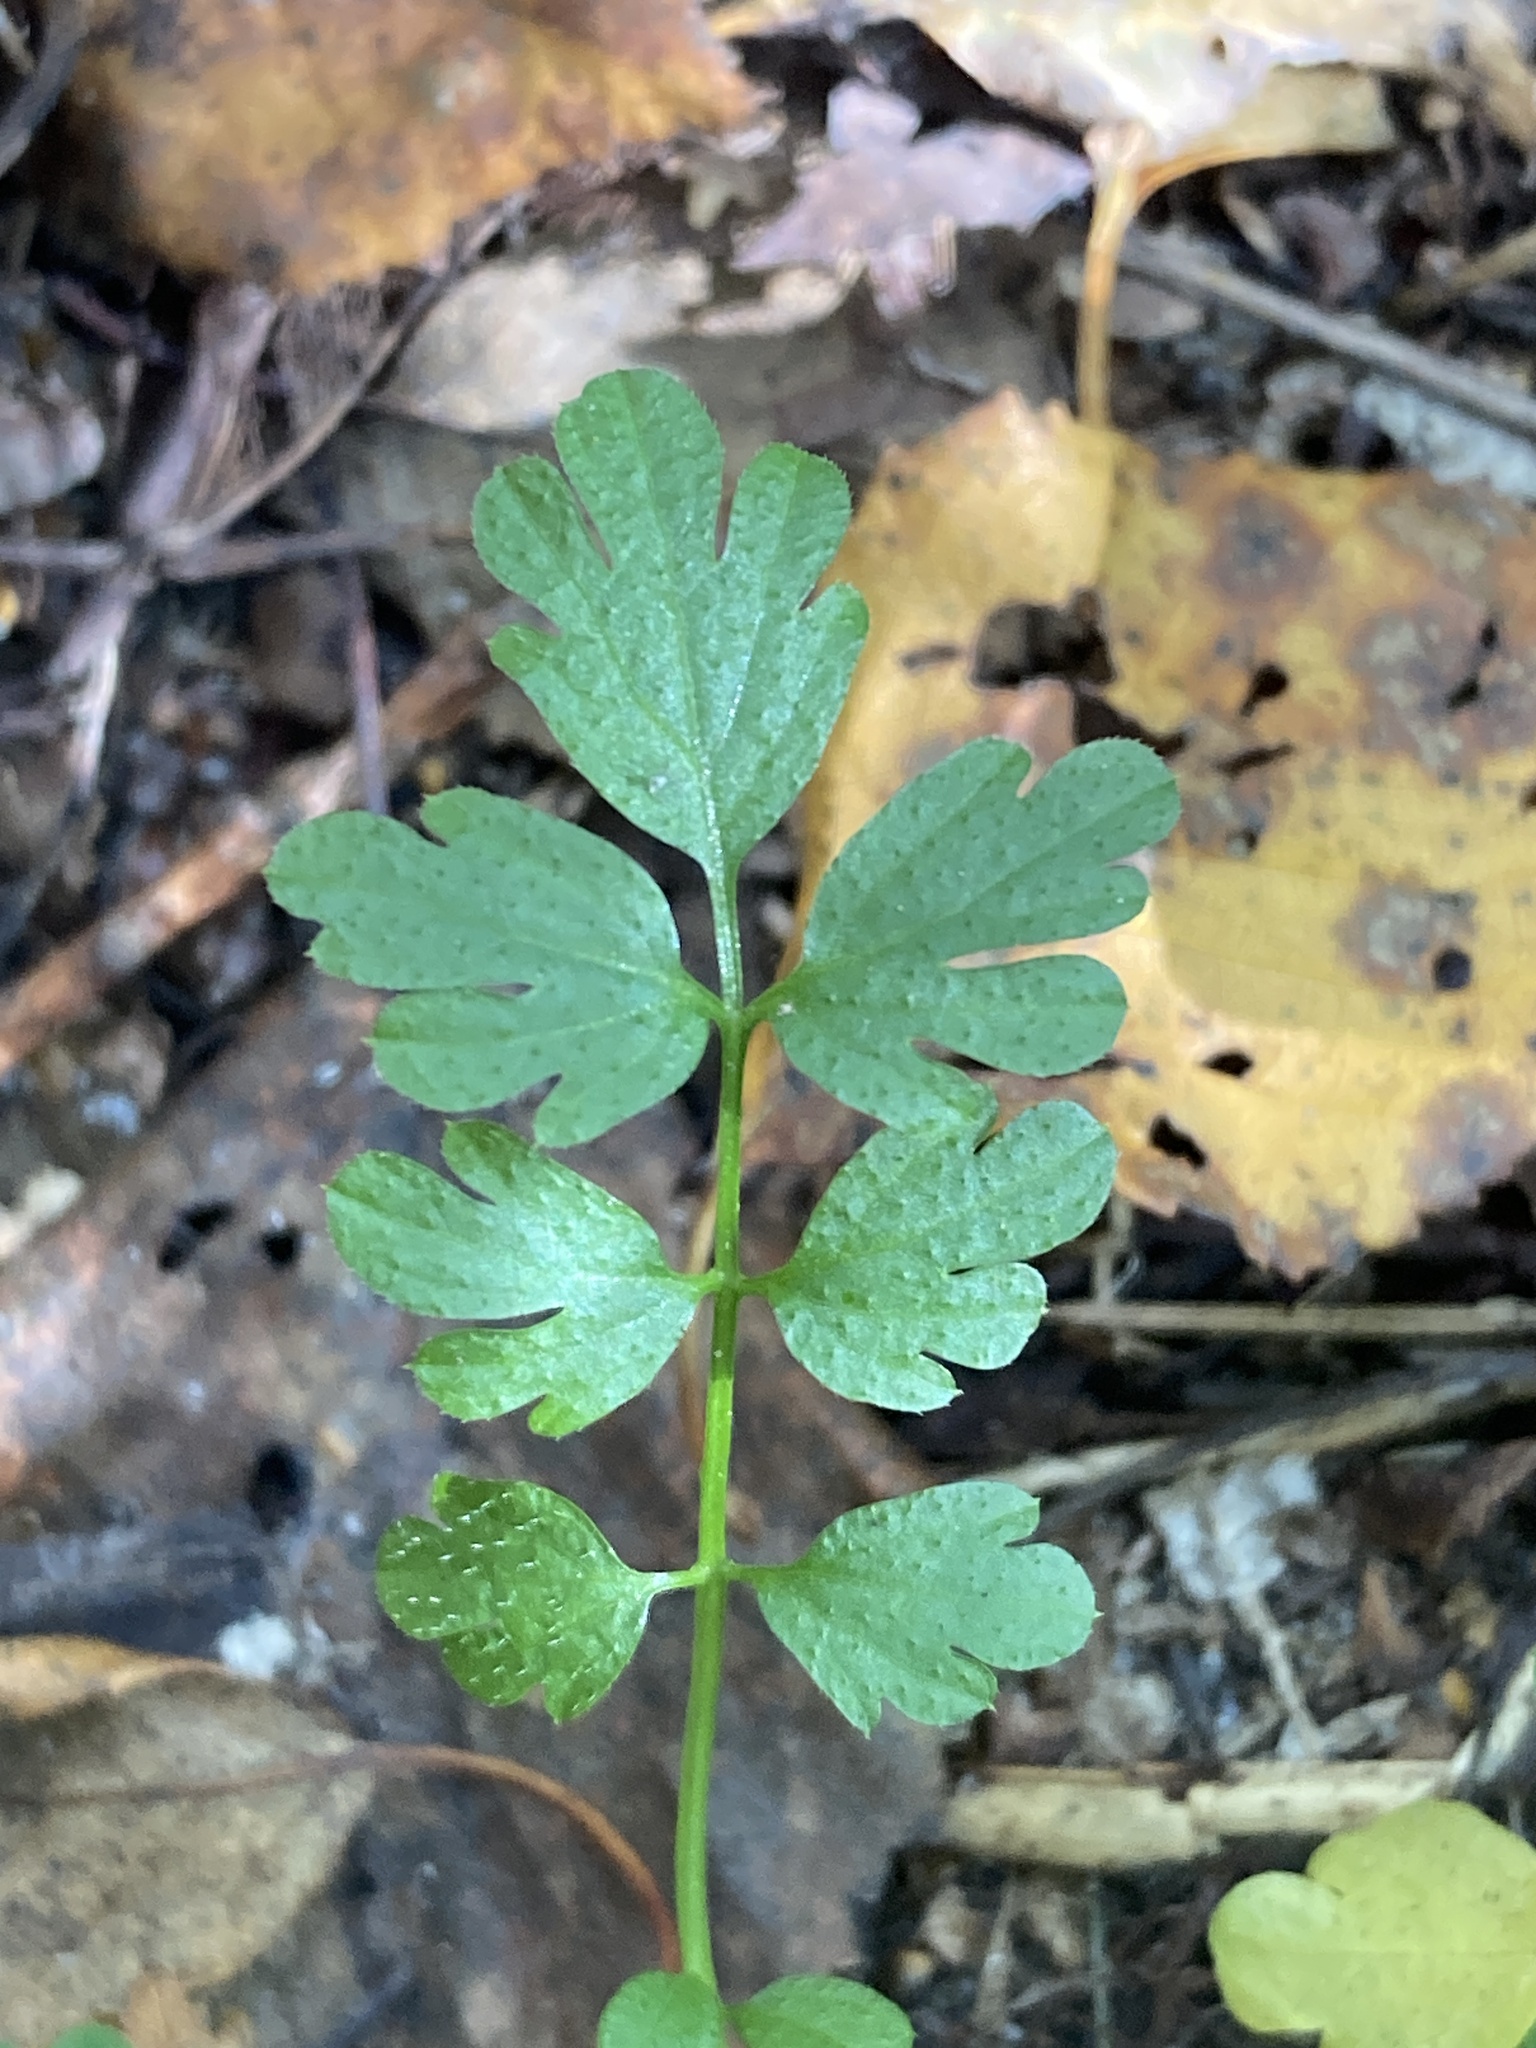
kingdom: Plantae
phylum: Tracheophyta
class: Magnoliopsida
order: Brassicales
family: Brassicaceae
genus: Cardamine
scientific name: Cardamine impatiens
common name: Narrow-leaved bitter-cress
